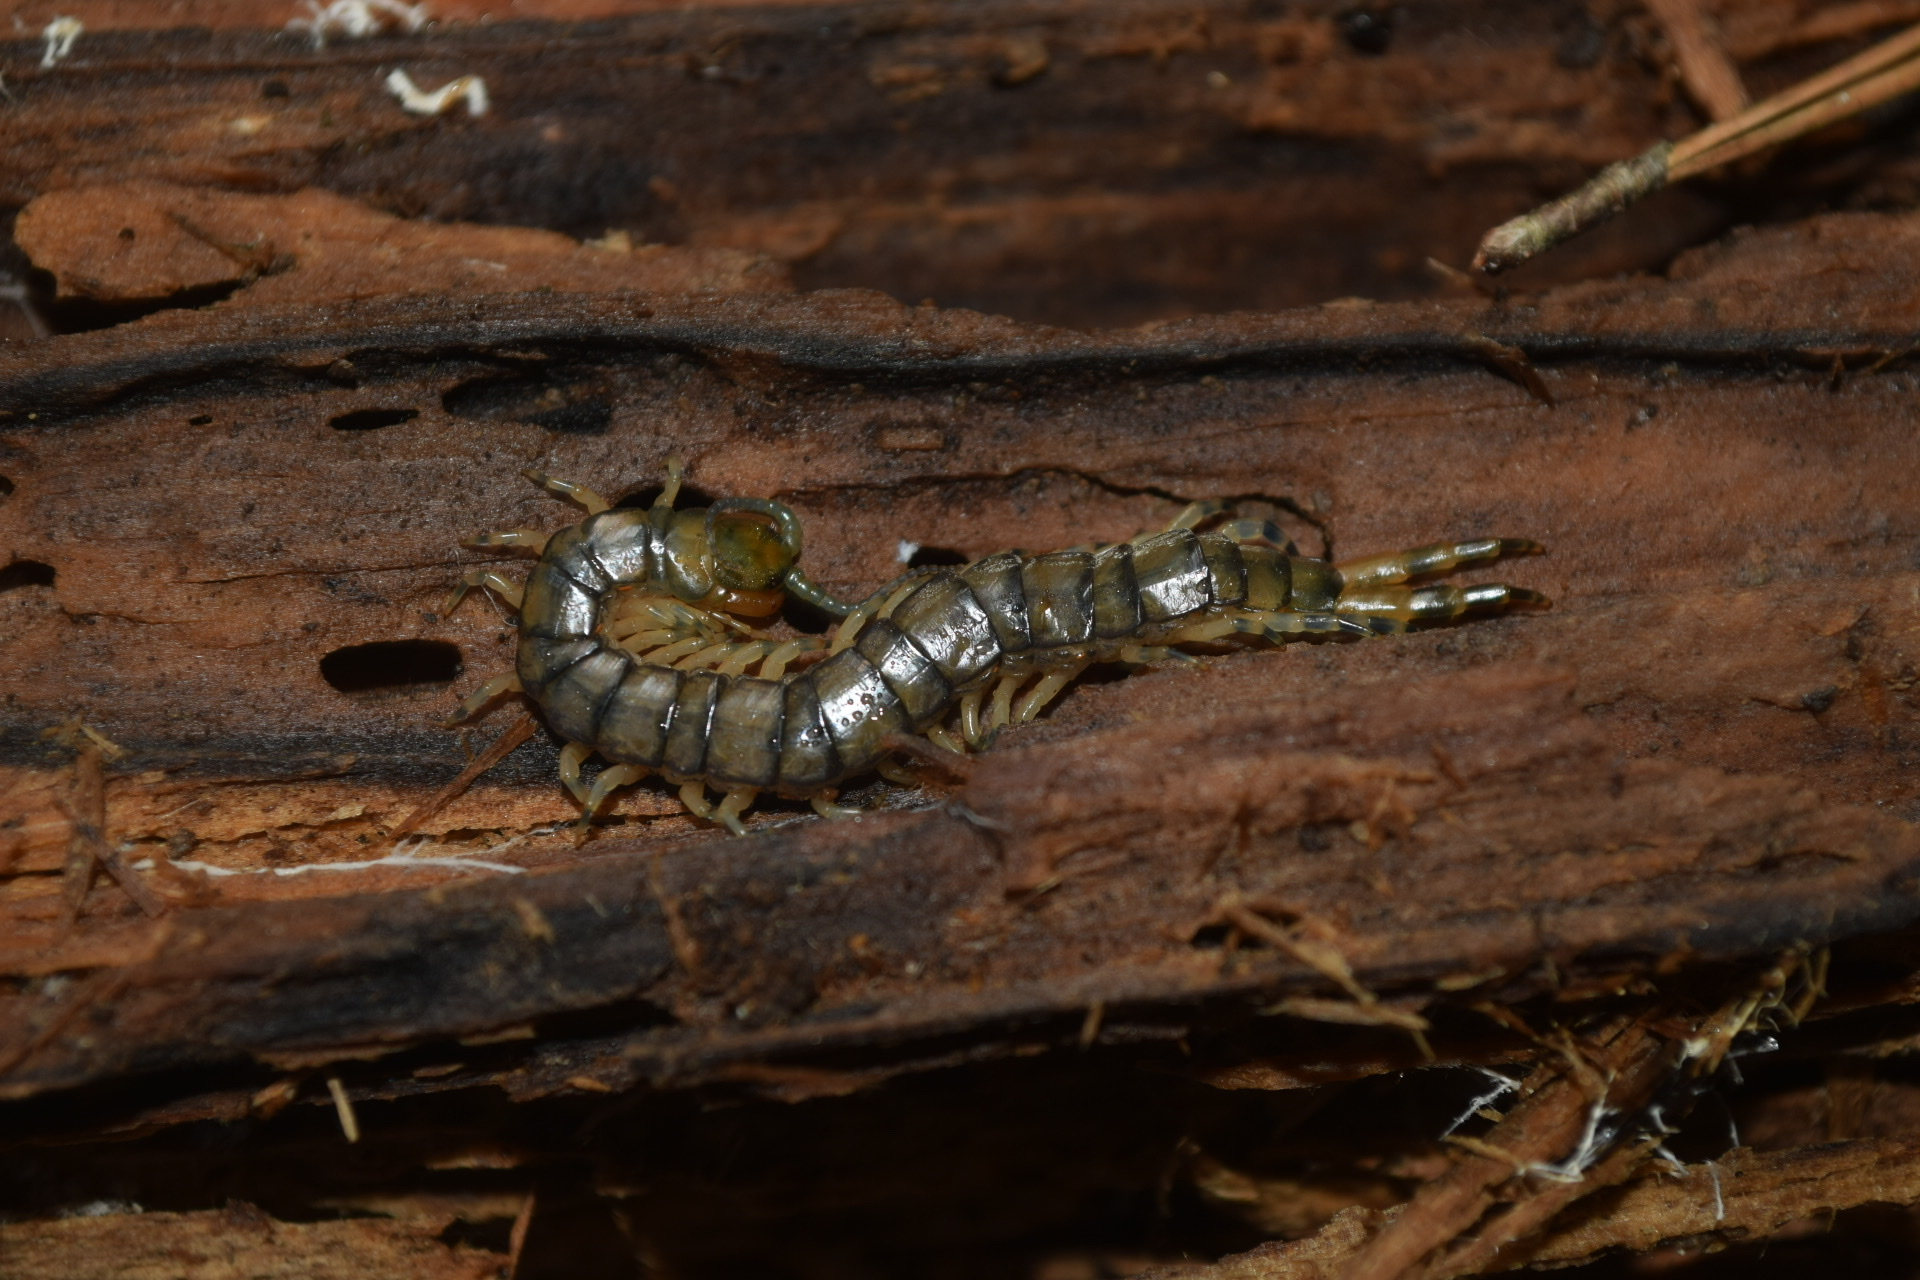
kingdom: Animalia
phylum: Arthropoda
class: Chilopoda
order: Scolopendromorpha
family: Scolopendridae
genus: Hemiscolopendra
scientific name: Hemiscolopendra marginata
